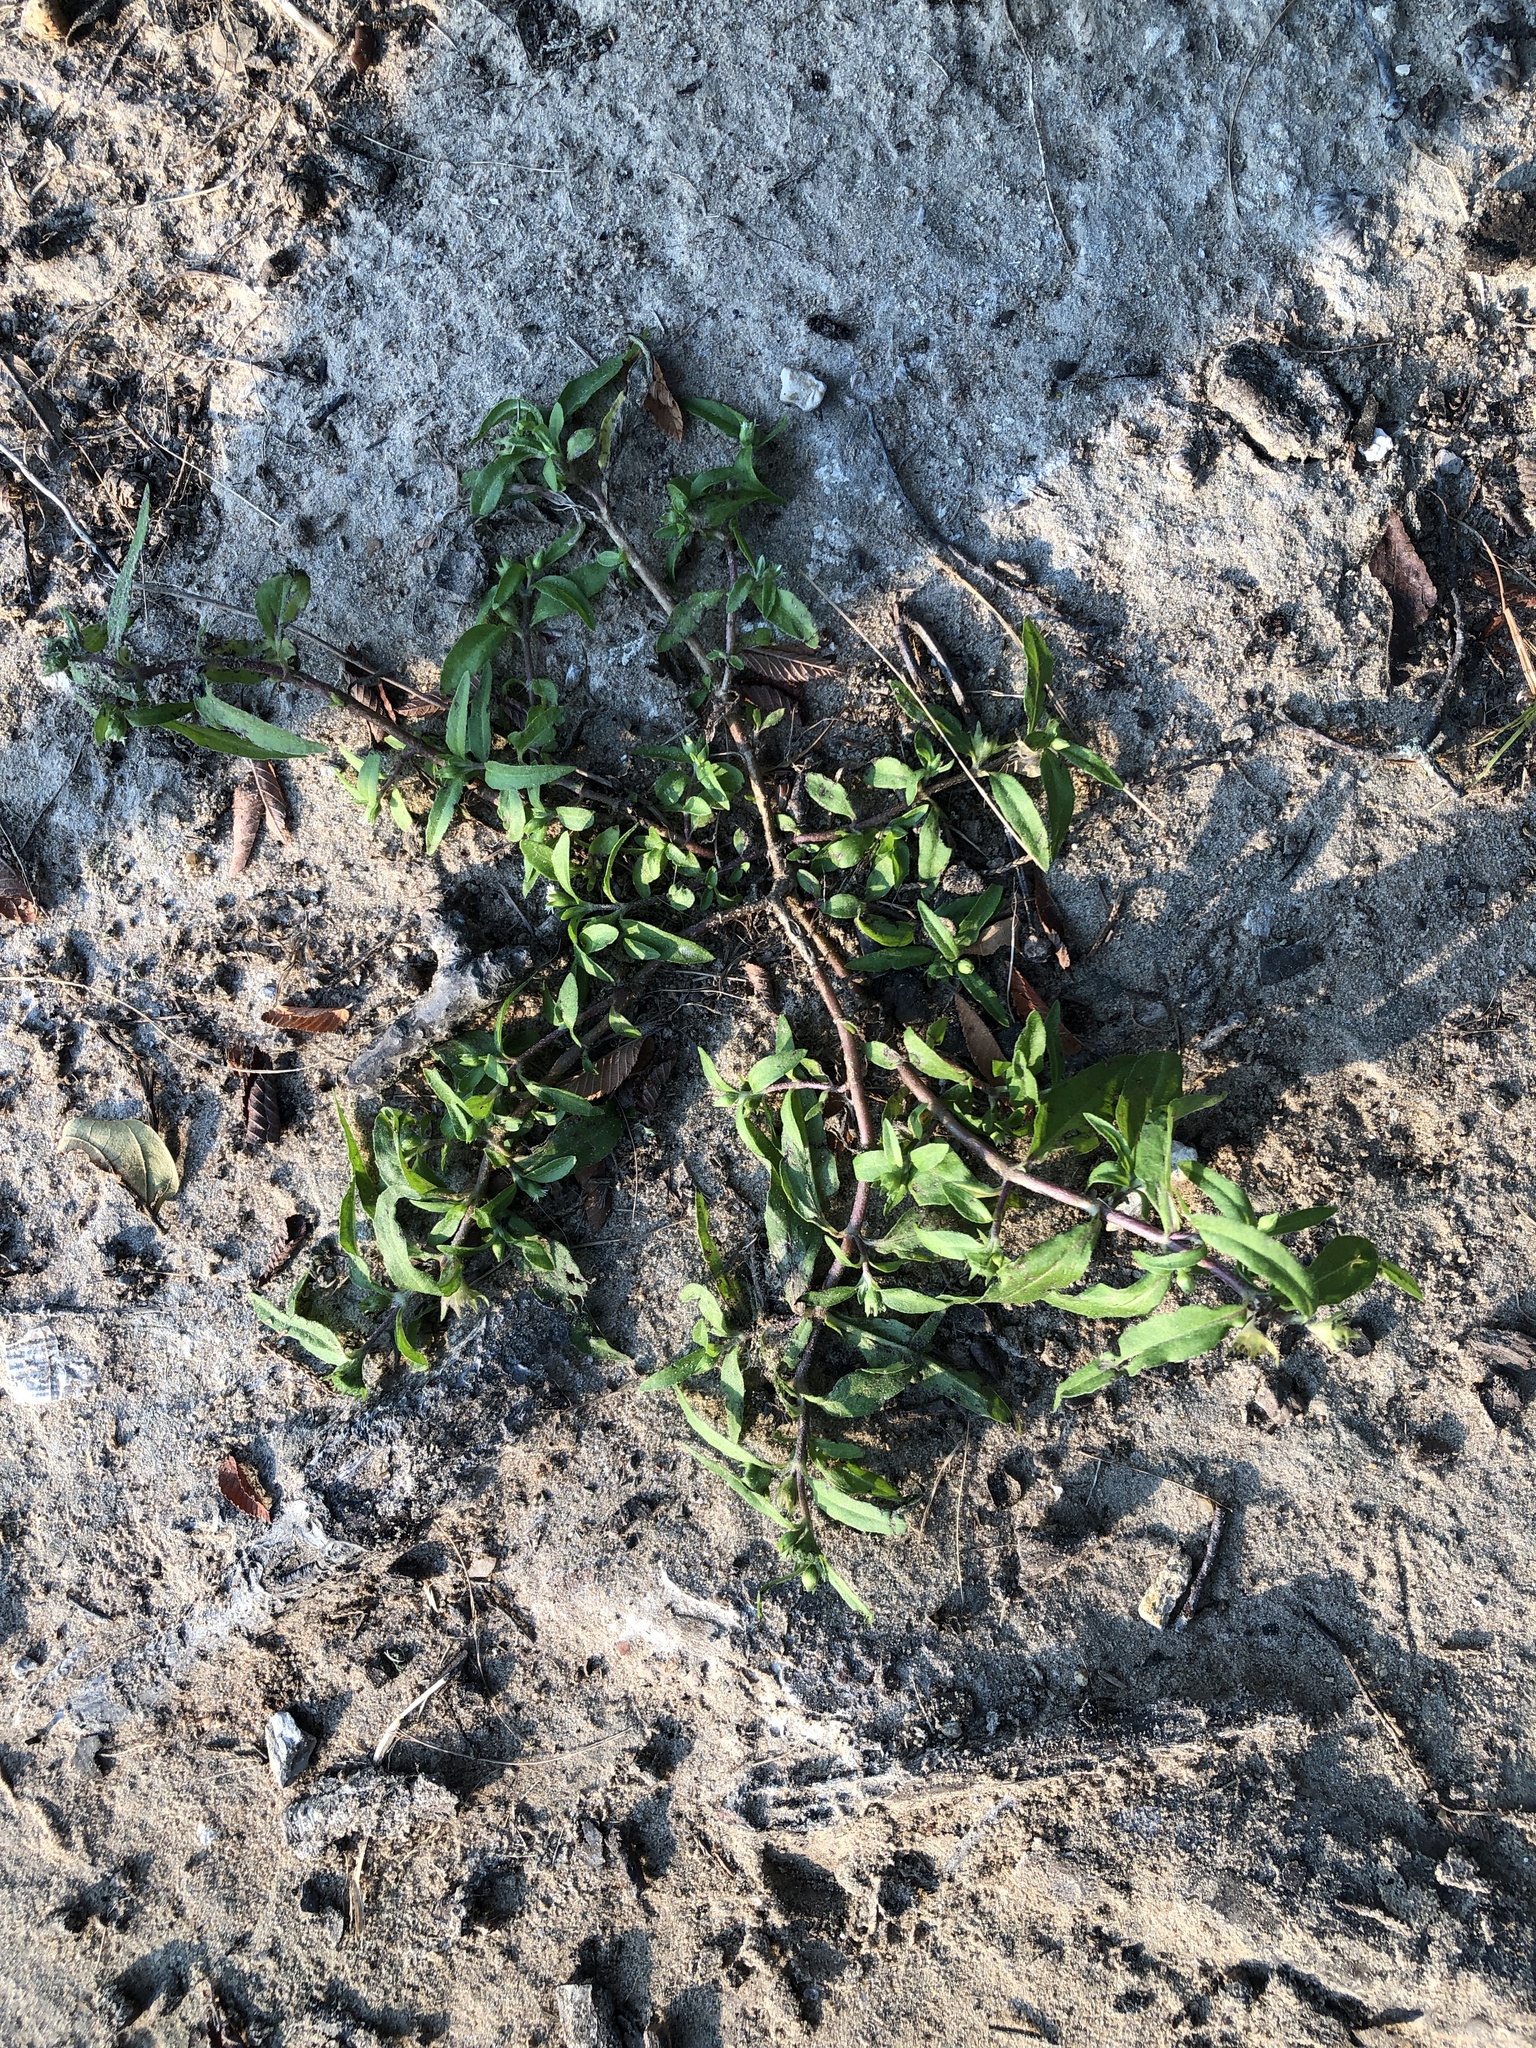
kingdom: Plantae
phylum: Tracheophyta
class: Magnoliopsida
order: Asterales
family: Asteraceae
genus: Eclipta
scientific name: Eclipta prostrata
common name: False daisy
